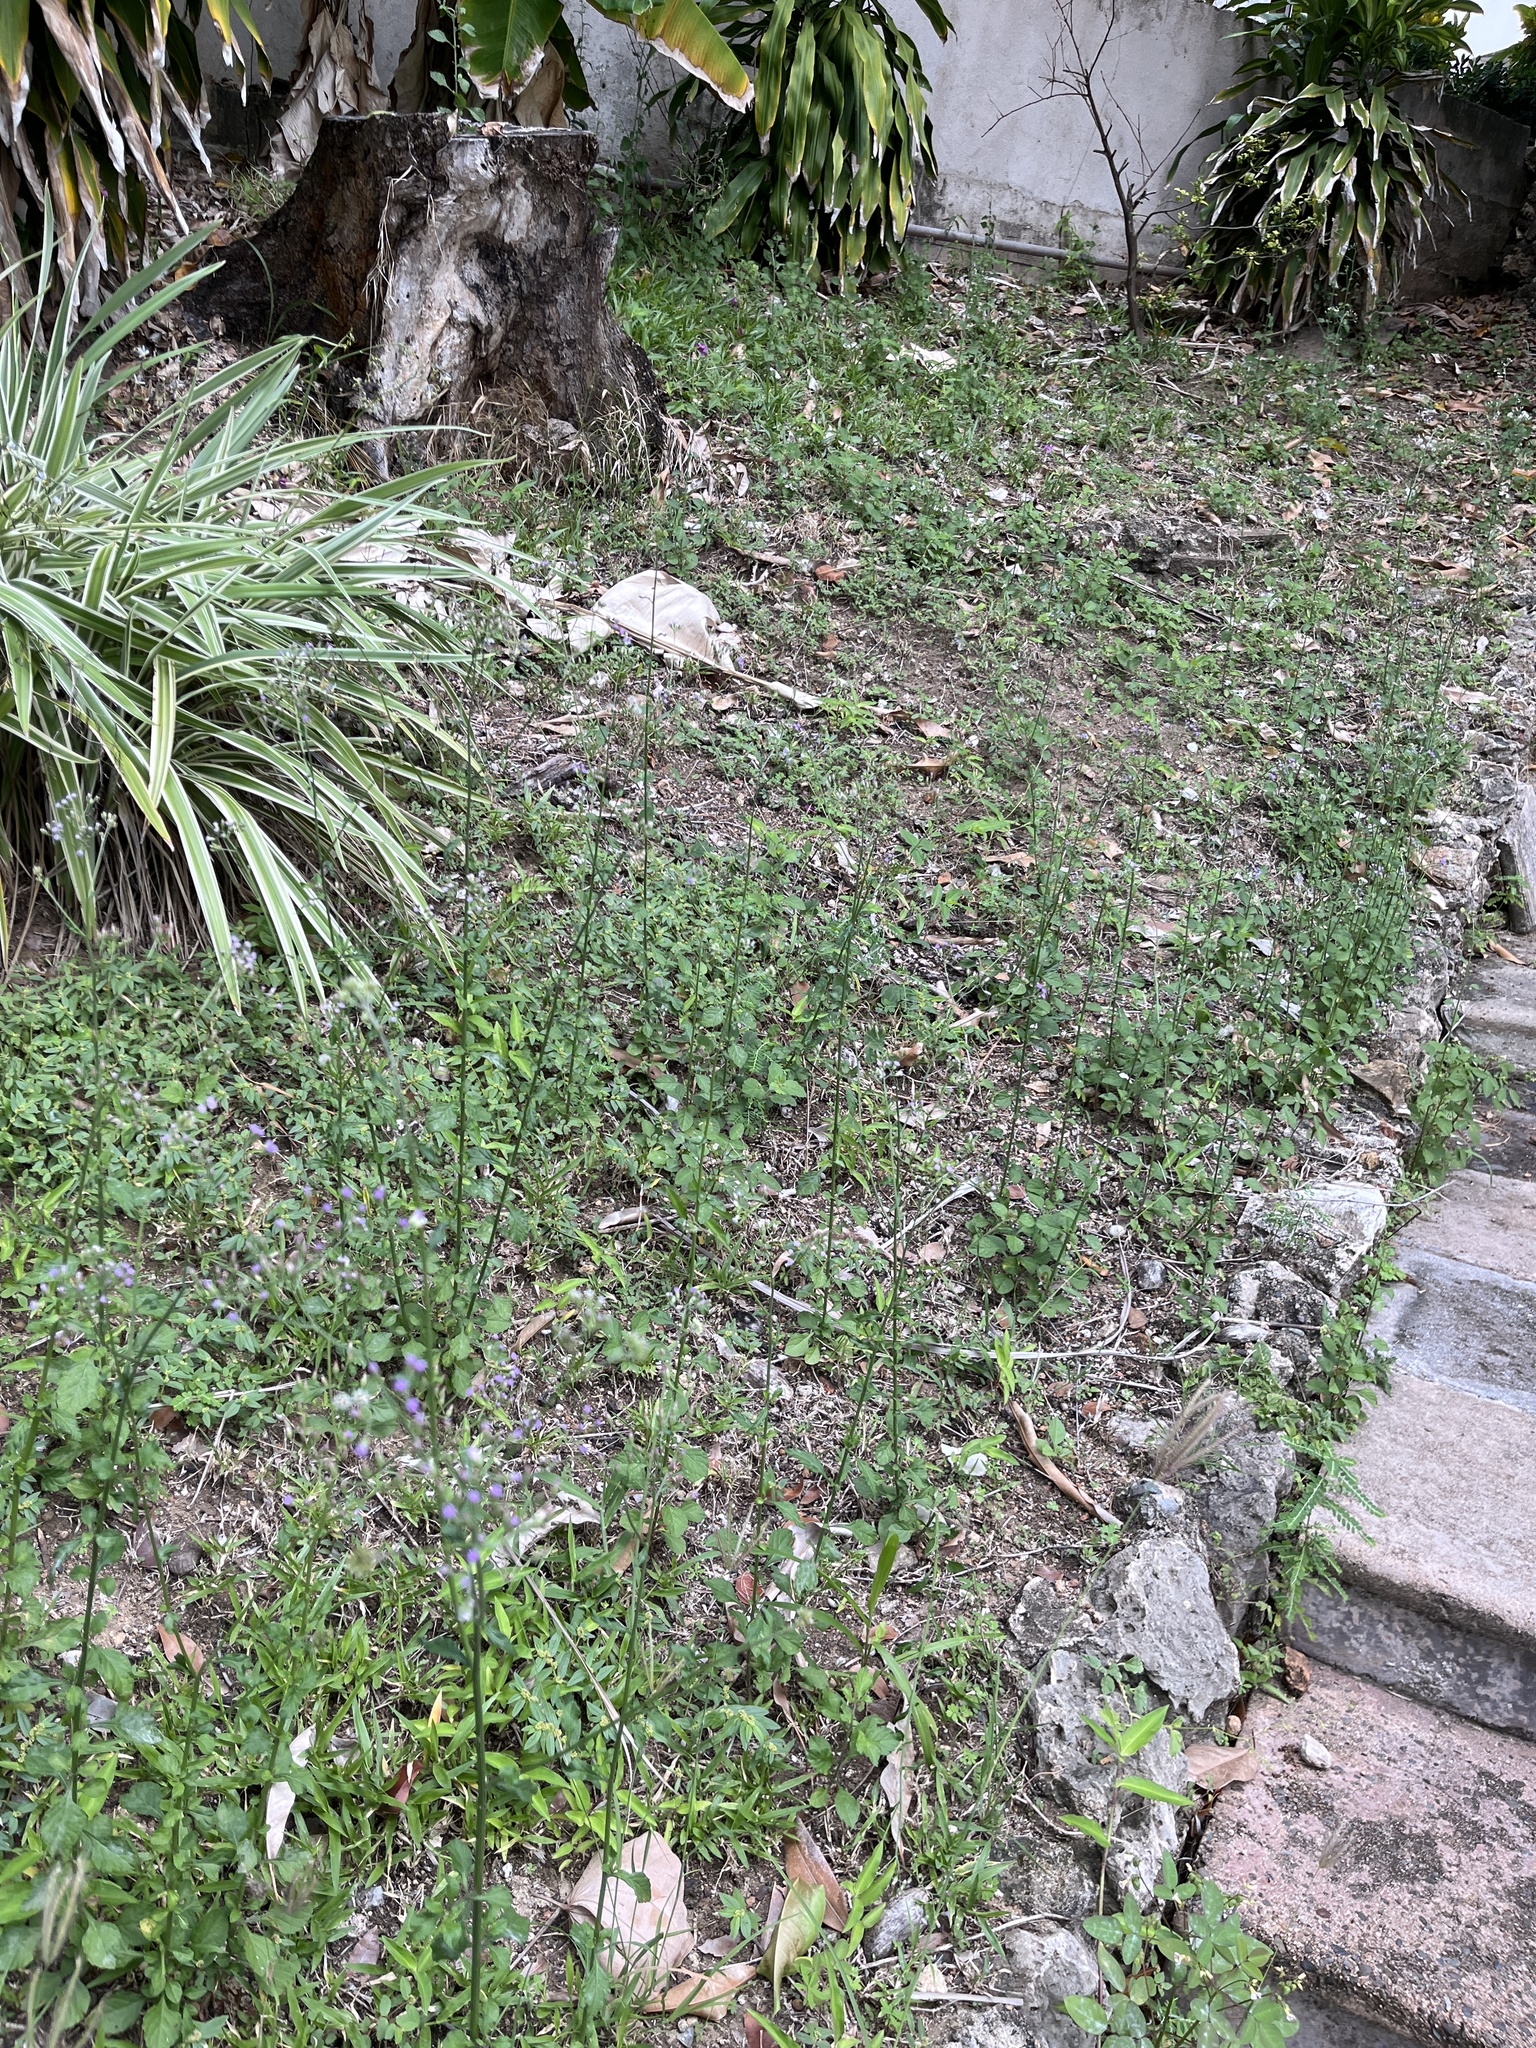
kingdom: Plantae
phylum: Tracheophyta
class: Magnoliopsida
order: Asterales
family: Asteraceae
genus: Cyanthillium
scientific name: Cyanthillium cinereum
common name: Little ironweed
